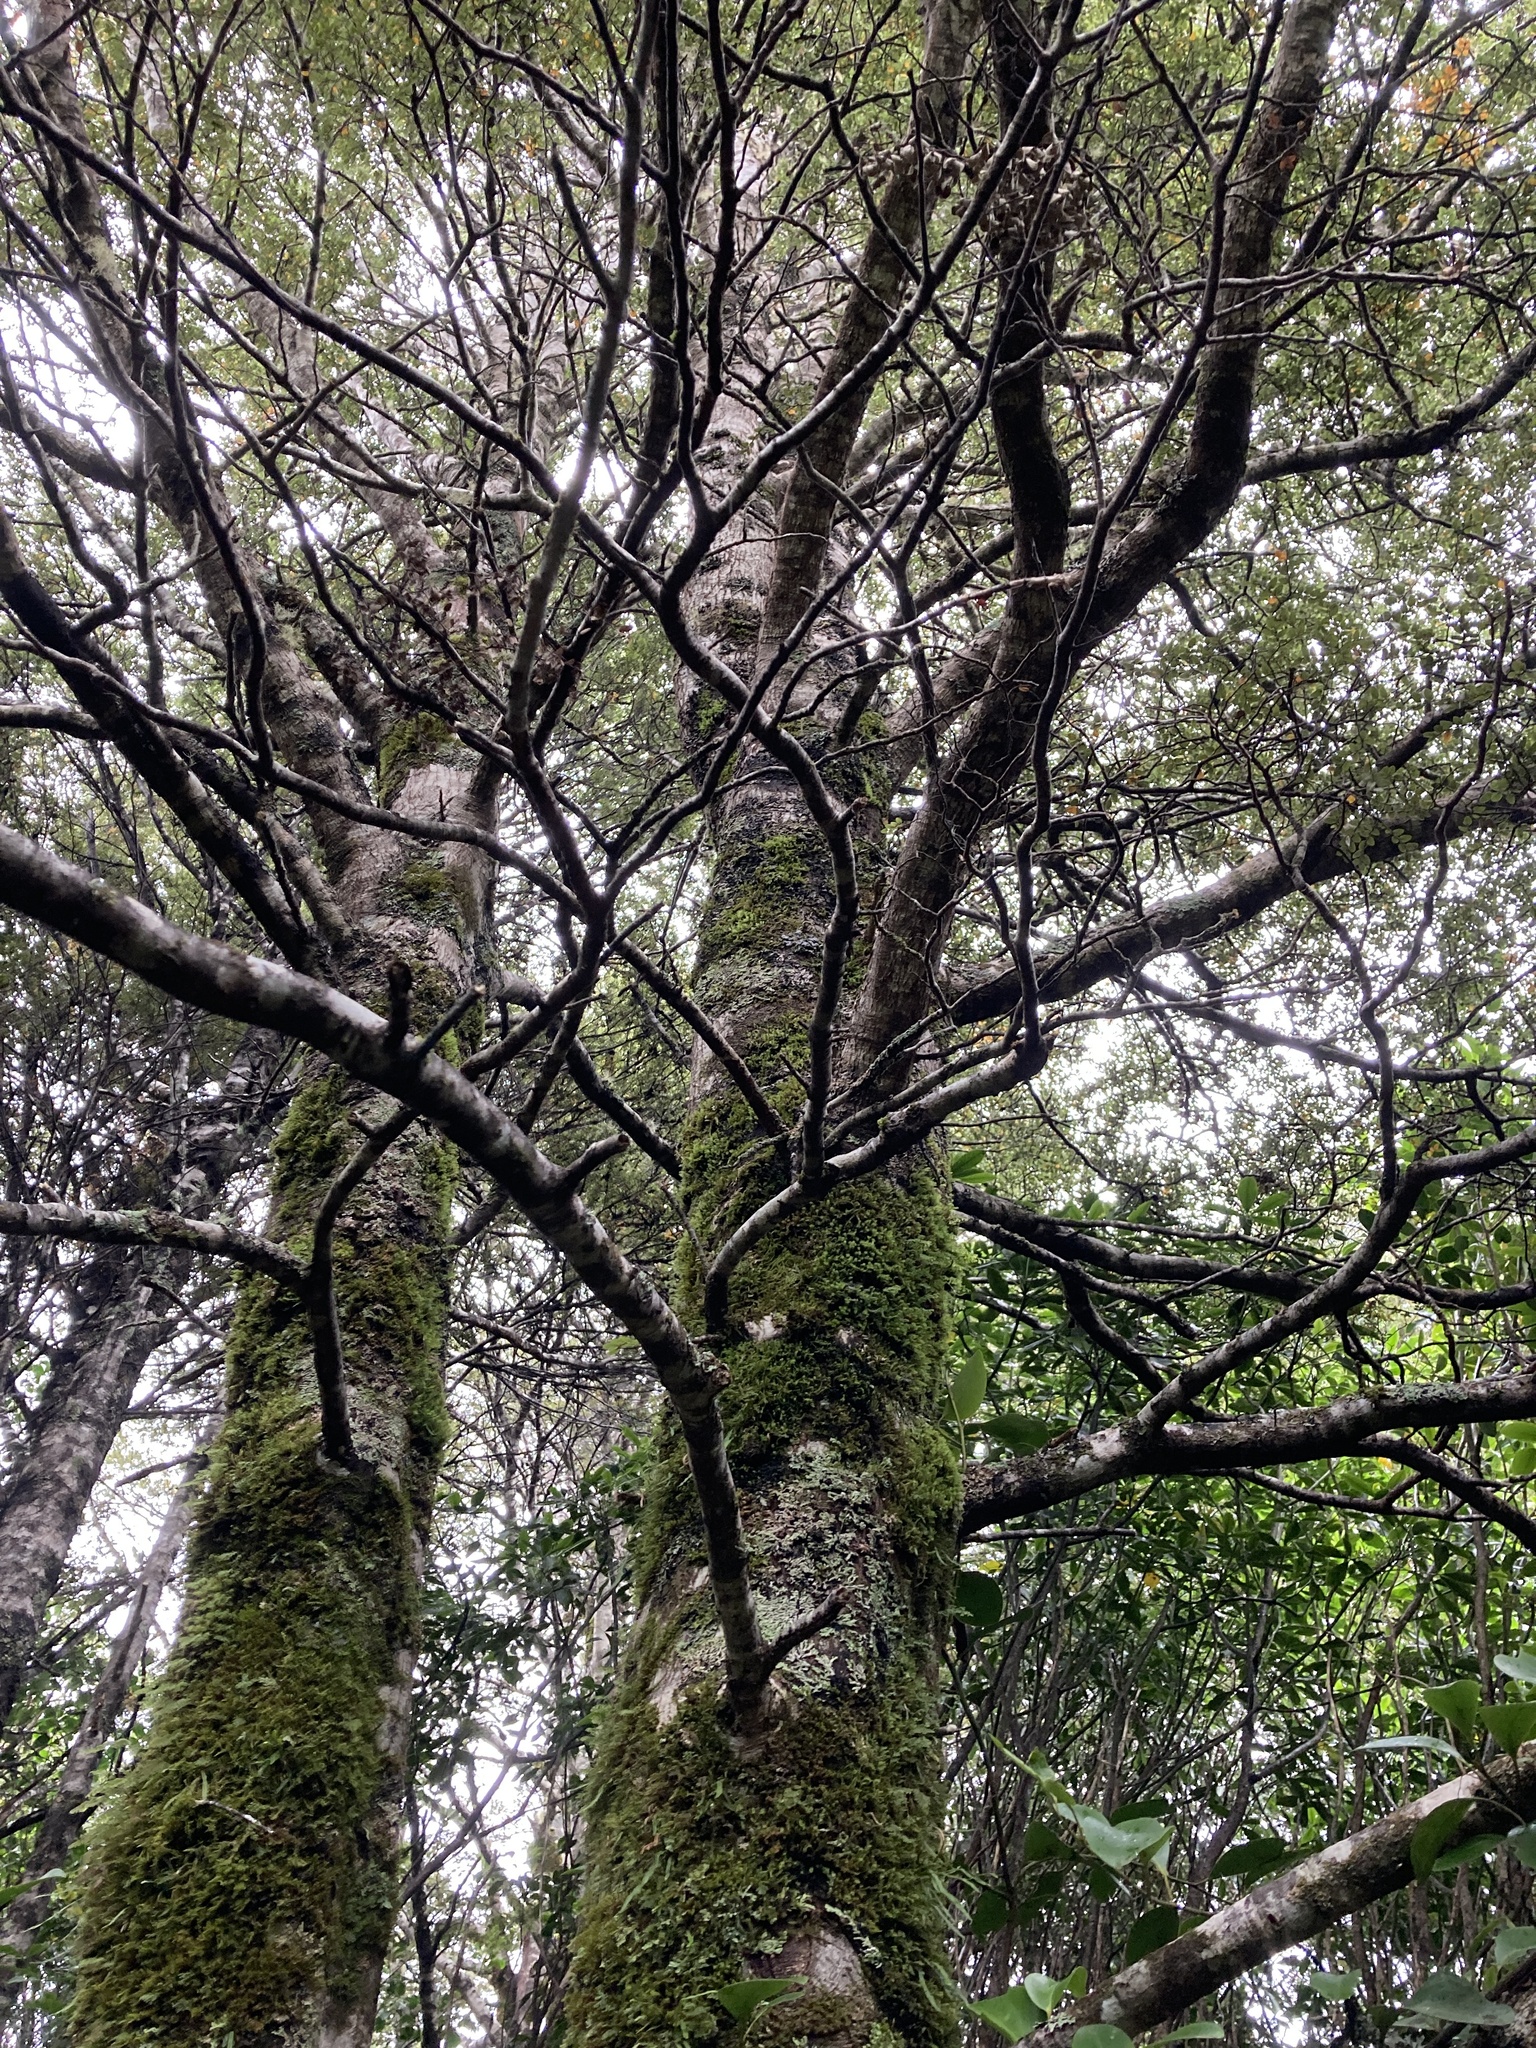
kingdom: Plantae
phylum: Tracheophyta
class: Magnoliopsida
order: Fagales
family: Nothofagaceae
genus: Nothofagus
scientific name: Nothofagus cliffortioides
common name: Mountain beech
